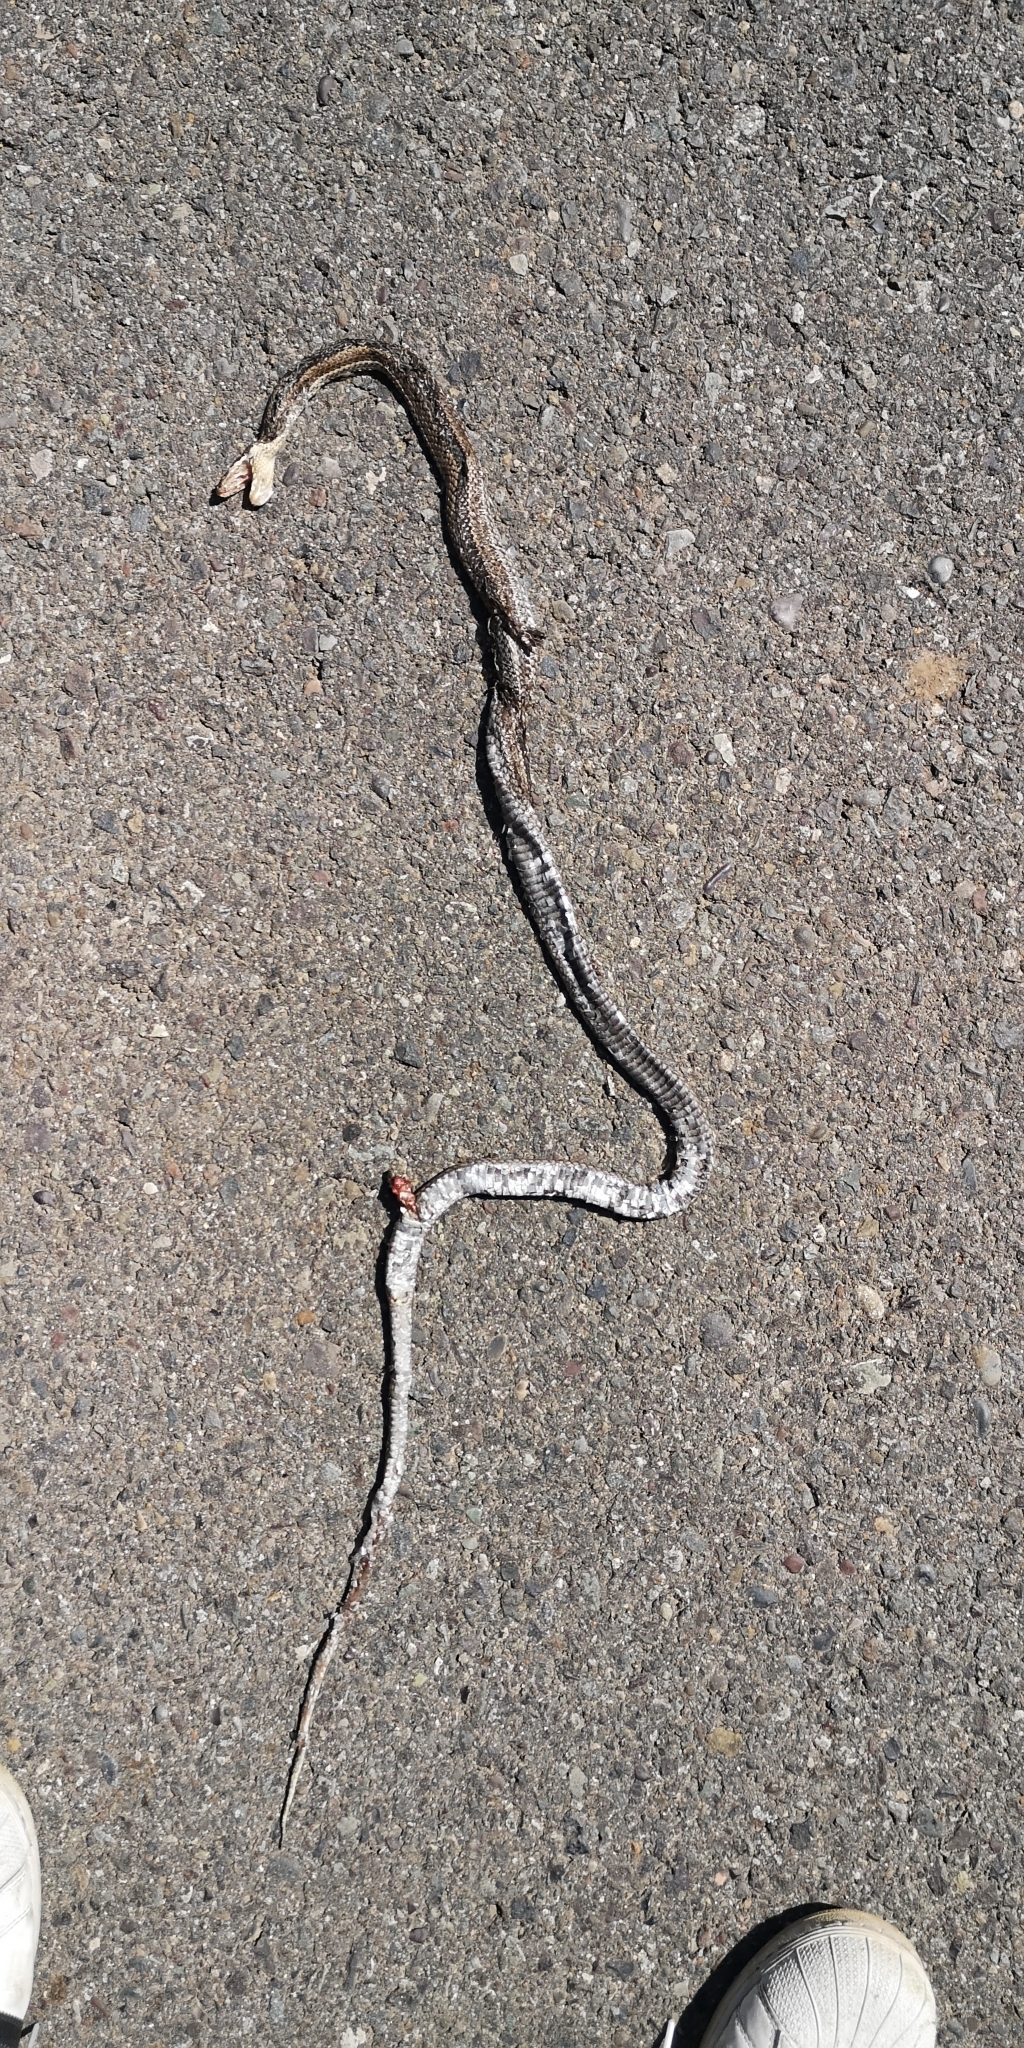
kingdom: Animalia
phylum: Chordata
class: Squamata
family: Colubridae
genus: Philodryas
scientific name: Philodryas chamissonis
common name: Chilean green racer
